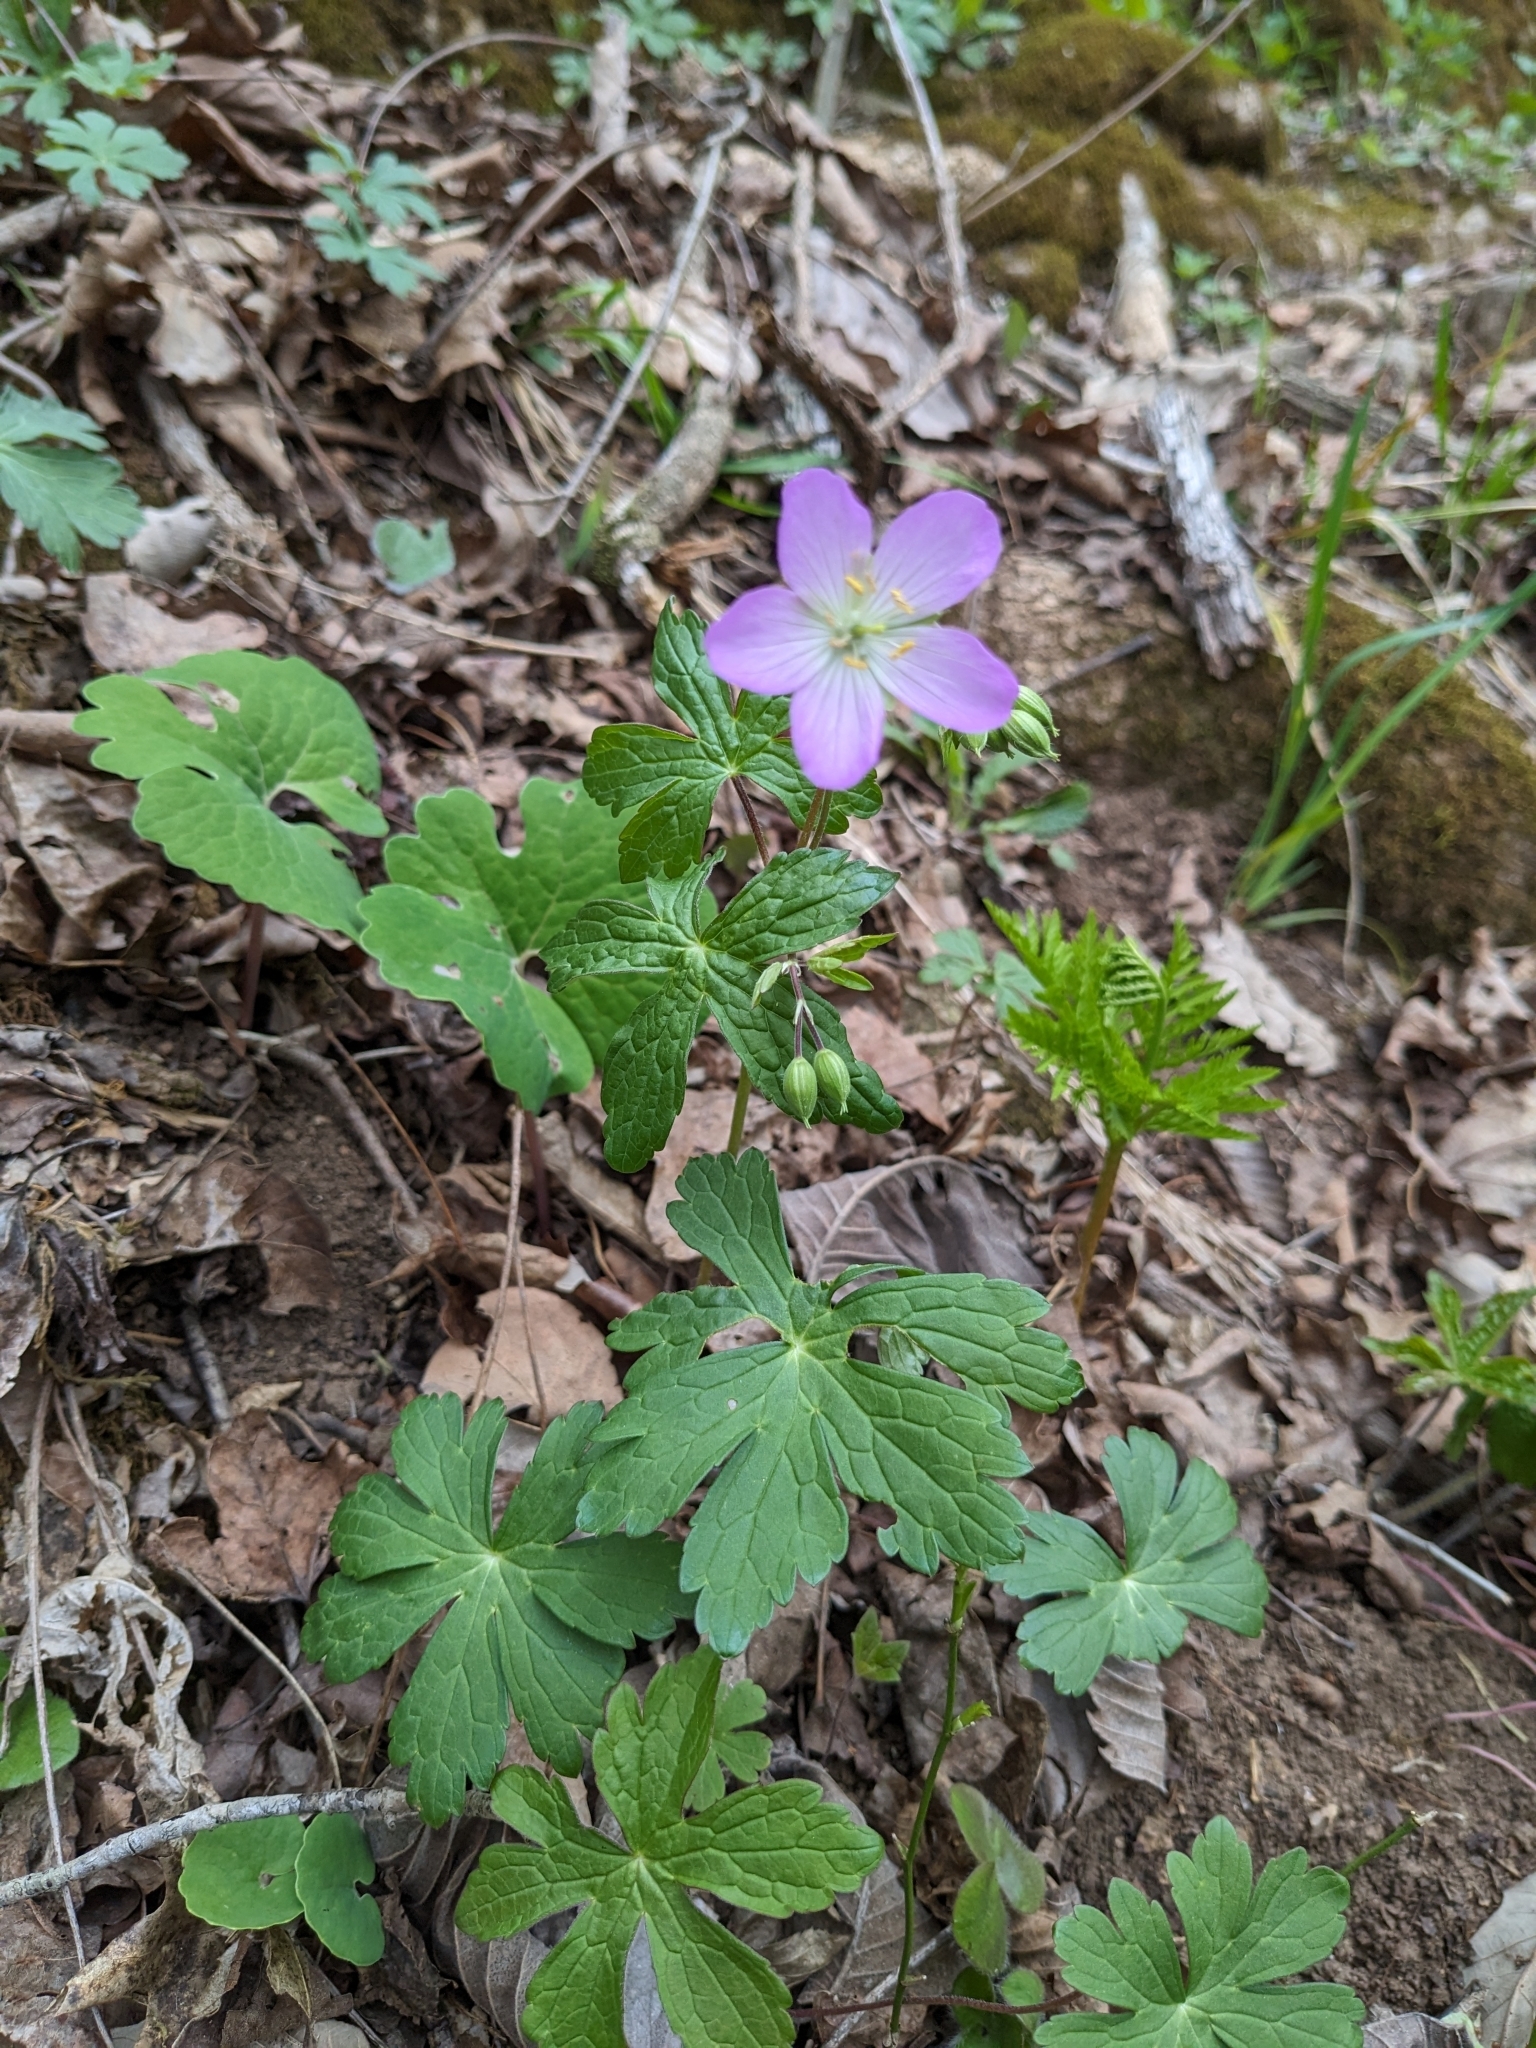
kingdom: Plantae
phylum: Tracheophyta
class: Magnoliopsida
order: Geraniales
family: Geraniaceae
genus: Geranium
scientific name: Geranium maculatum
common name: Spotted geranium
